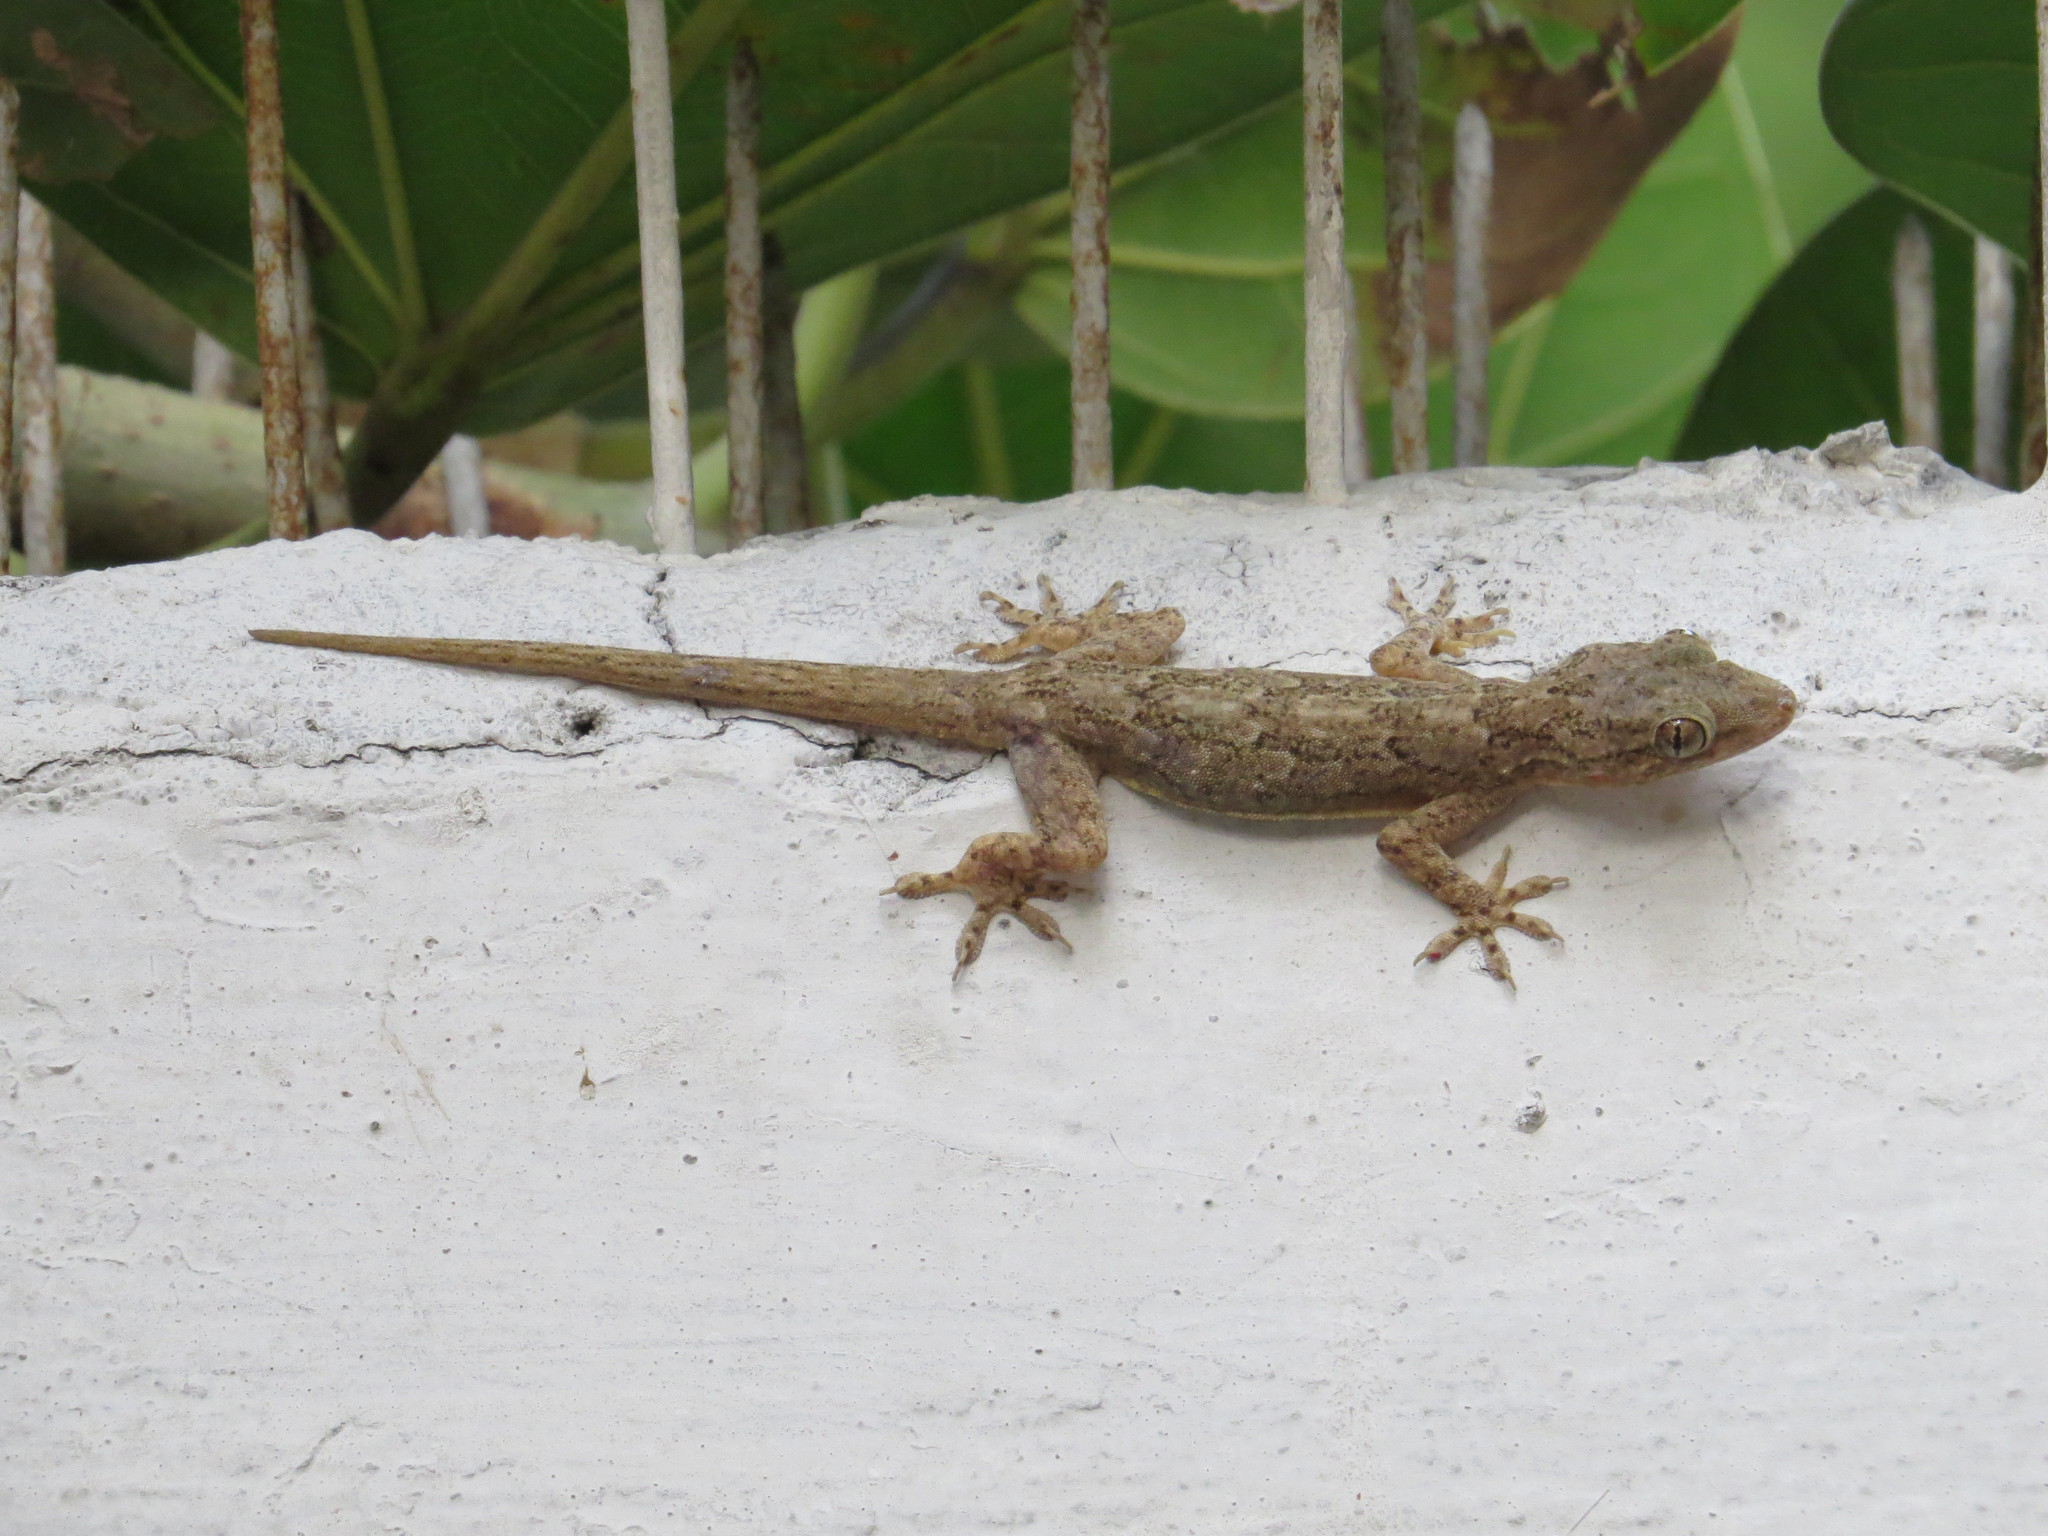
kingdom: Animalia
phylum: Chordata
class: Squamata
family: Gekkonidae
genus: Hemidactylus
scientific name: Hemidactylus flaviviridis
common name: Northern house gecko
